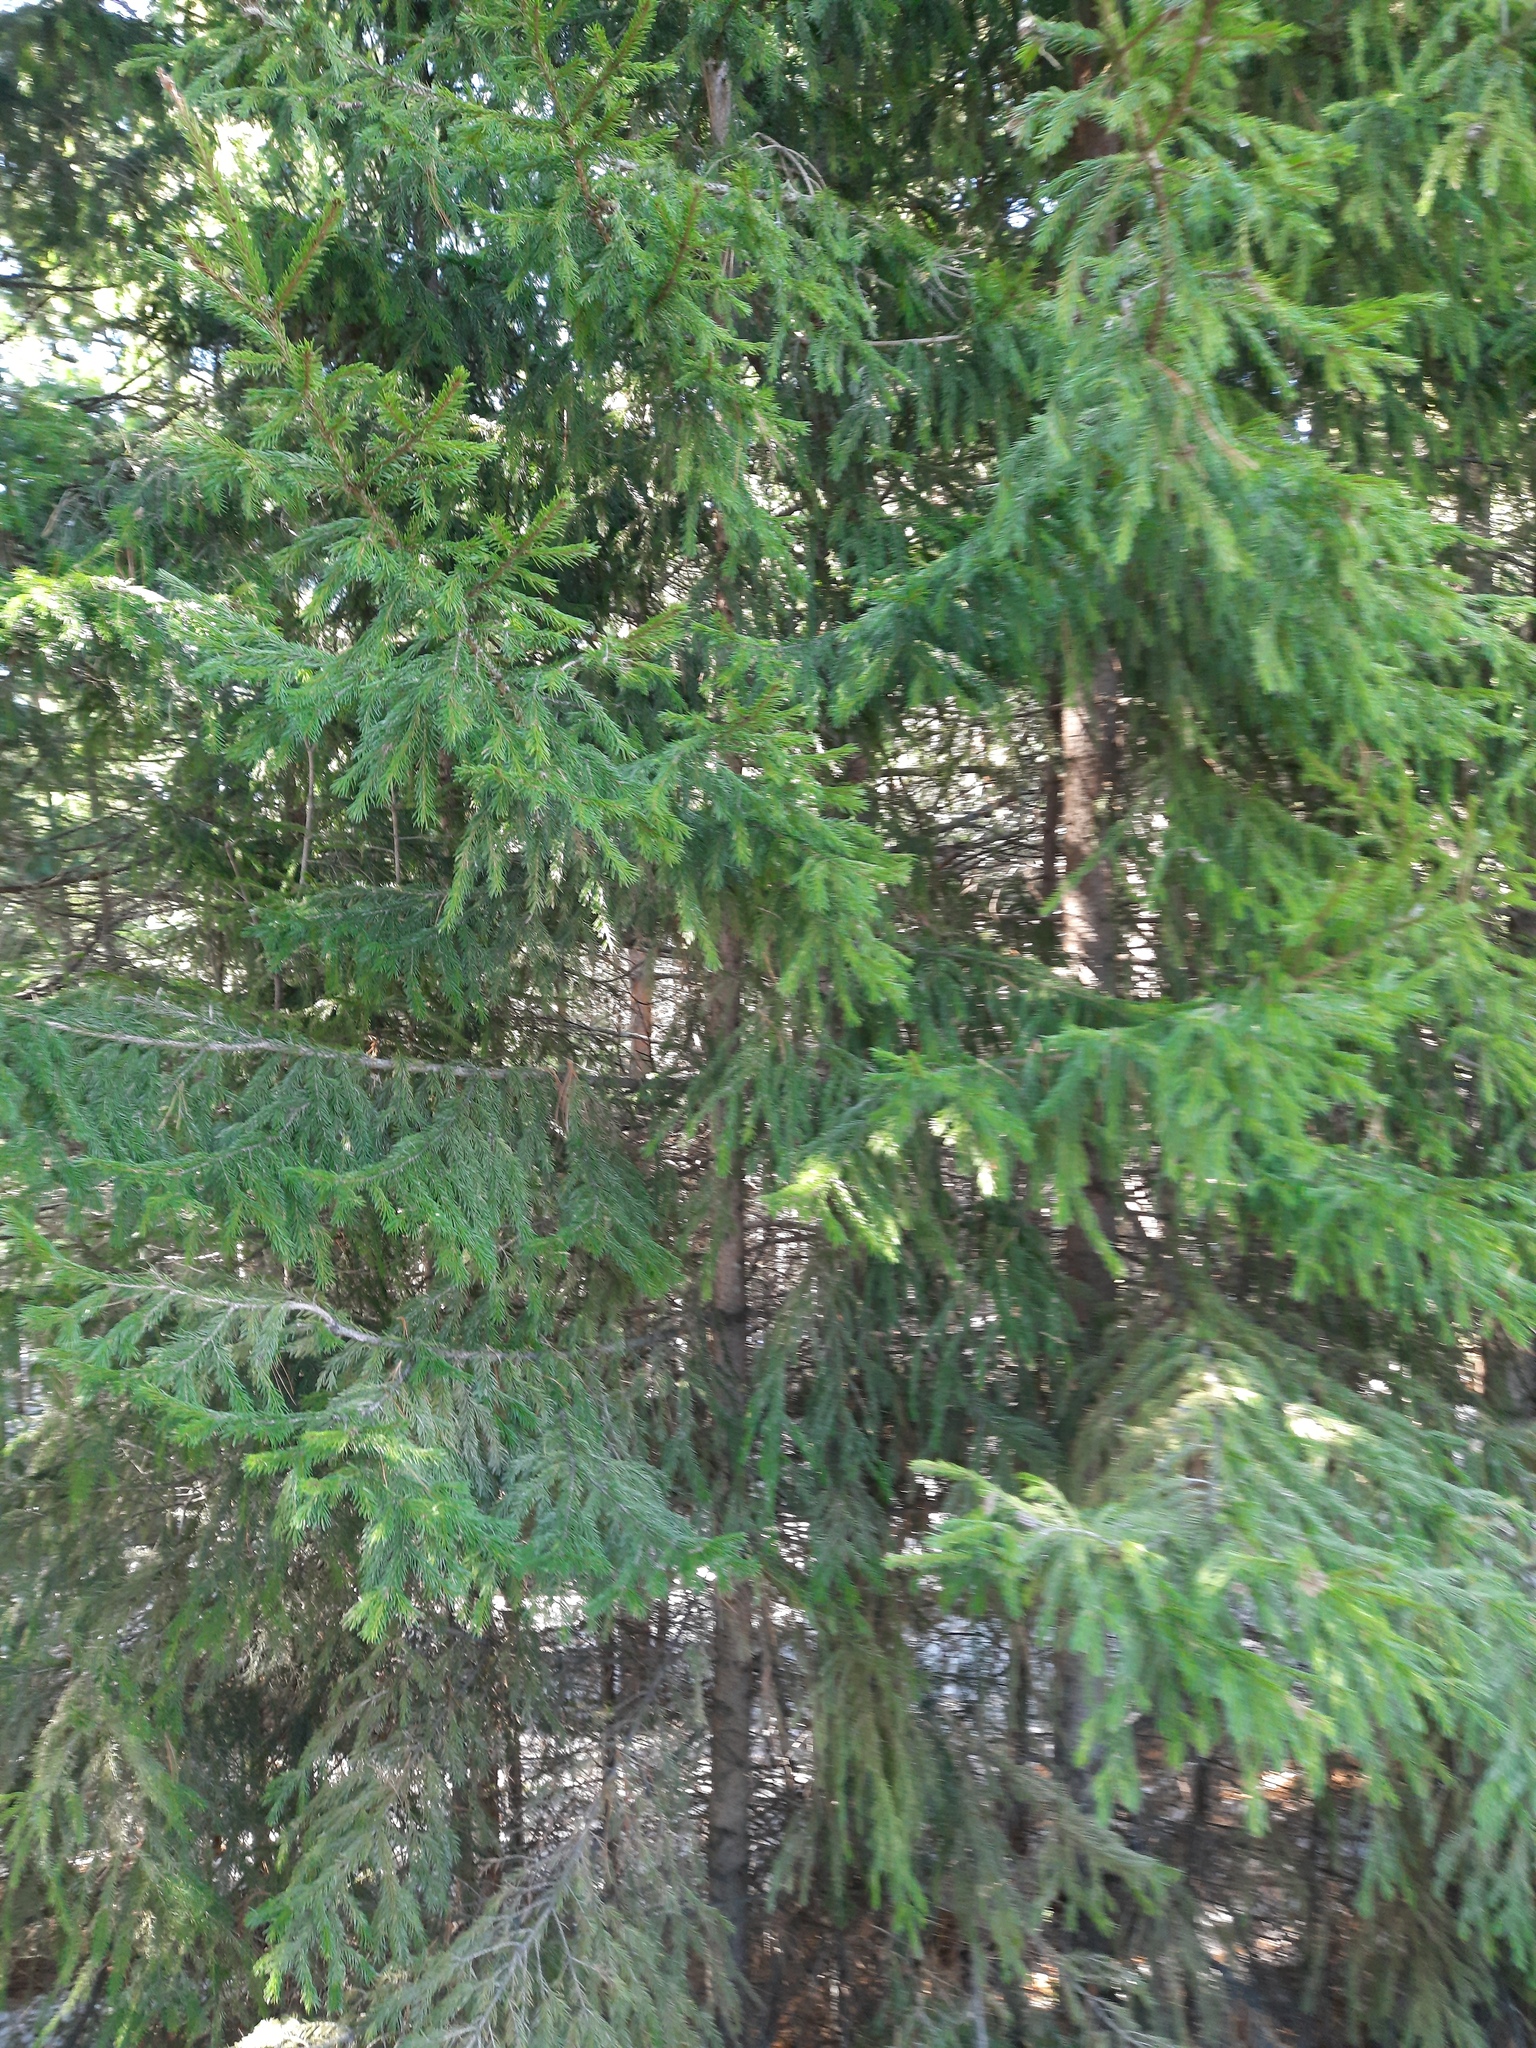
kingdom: Plantae
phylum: Tracheophyta
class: Pinopsida
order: Pinales
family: Pinaceae
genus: Picea
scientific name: Picea obovata
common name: Siberian spruce
